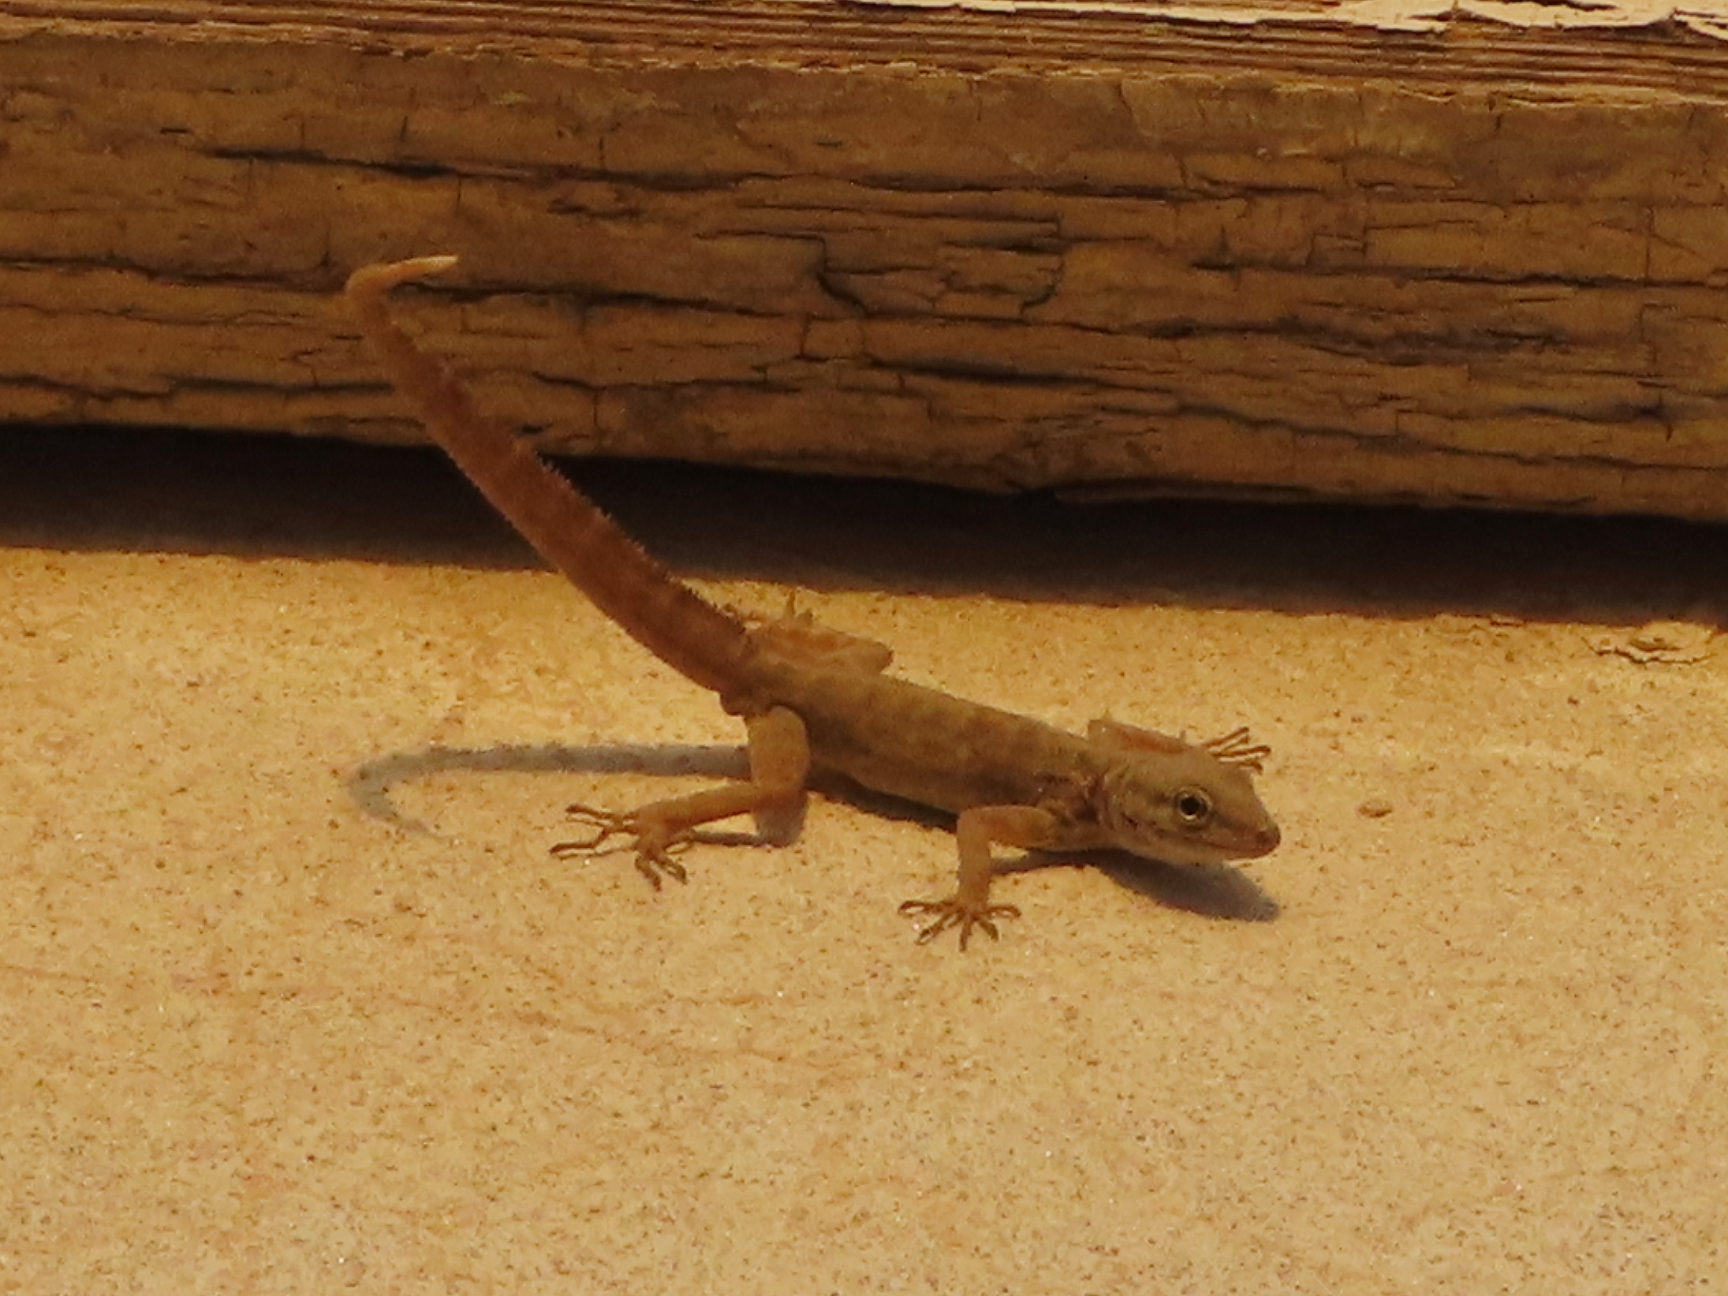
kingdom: Animalia
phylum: Chordata
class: Squamata
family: Sphaerodactylidae
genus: Pristurus
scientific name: Pristurus rupestris
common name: Blanford’s semaphore gecko
